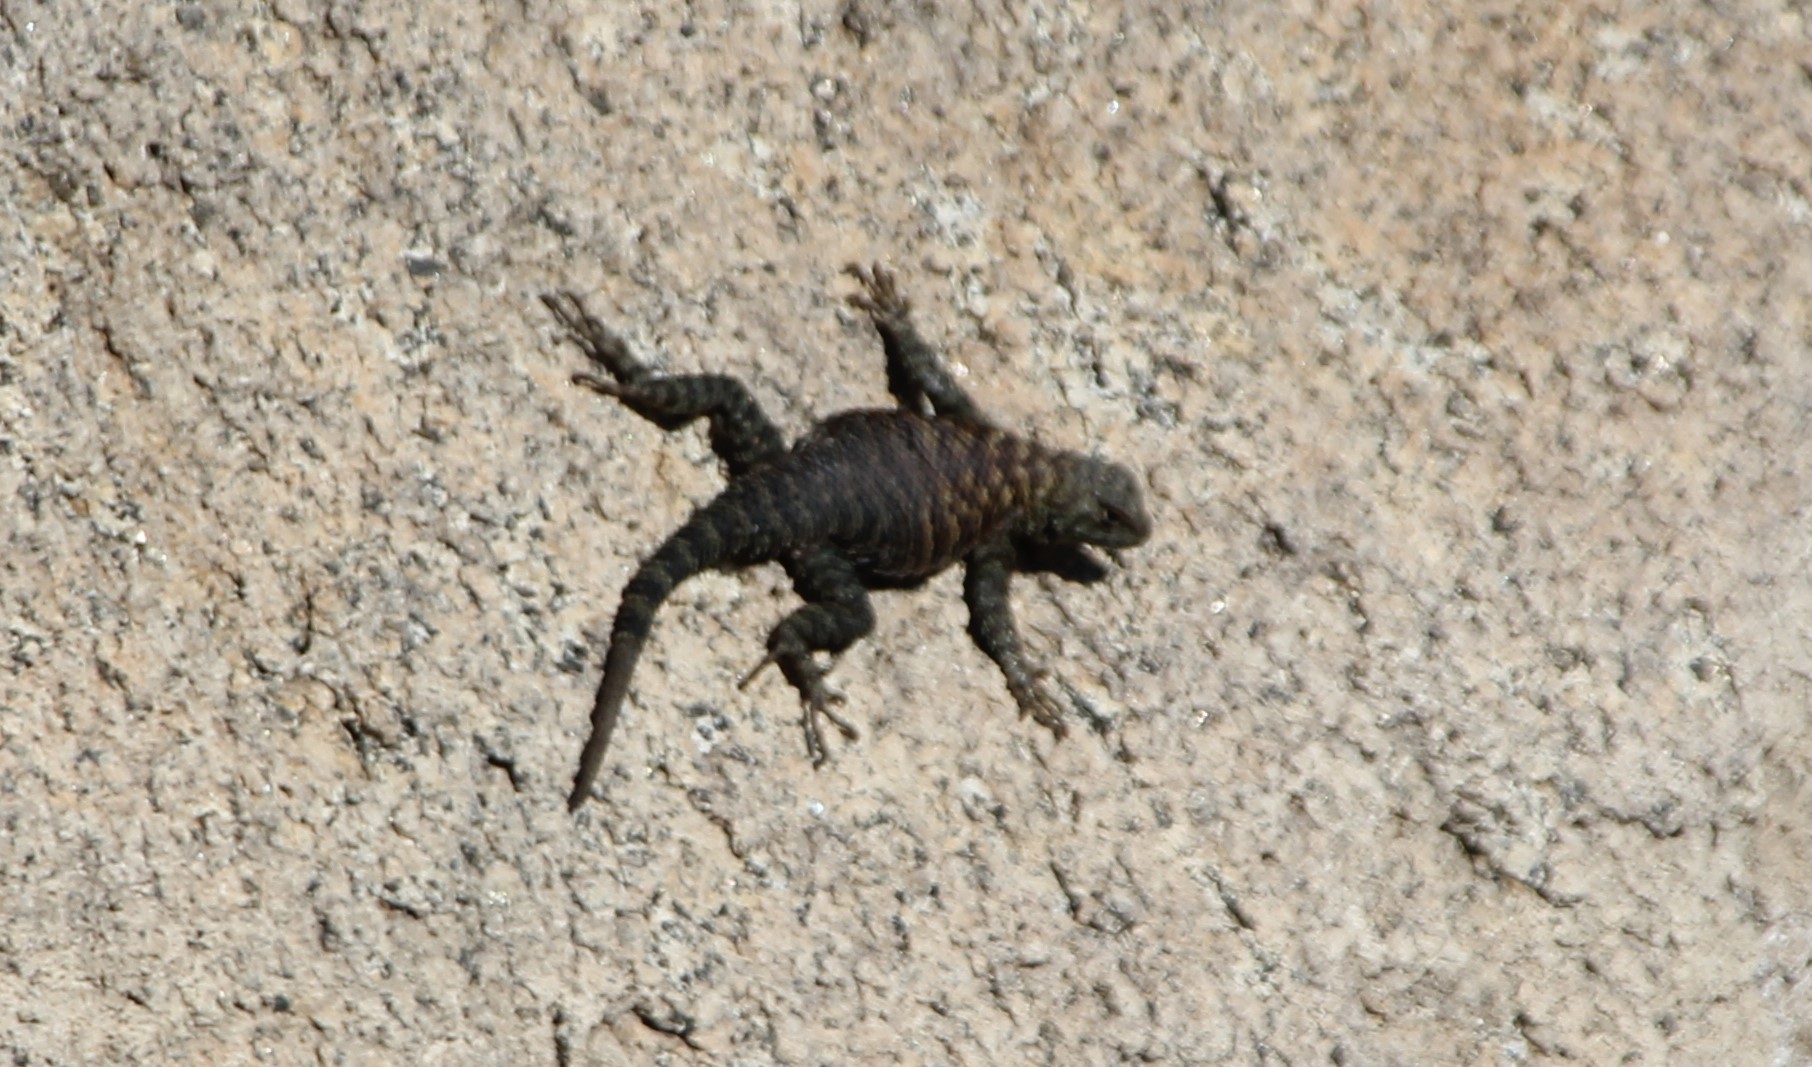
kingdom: Animalia
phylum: Chordata
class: Squamata
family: Phrynosomatidae
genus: Sceloporus
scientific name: Sceloporus orcutti
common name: Granite spiny lizard
